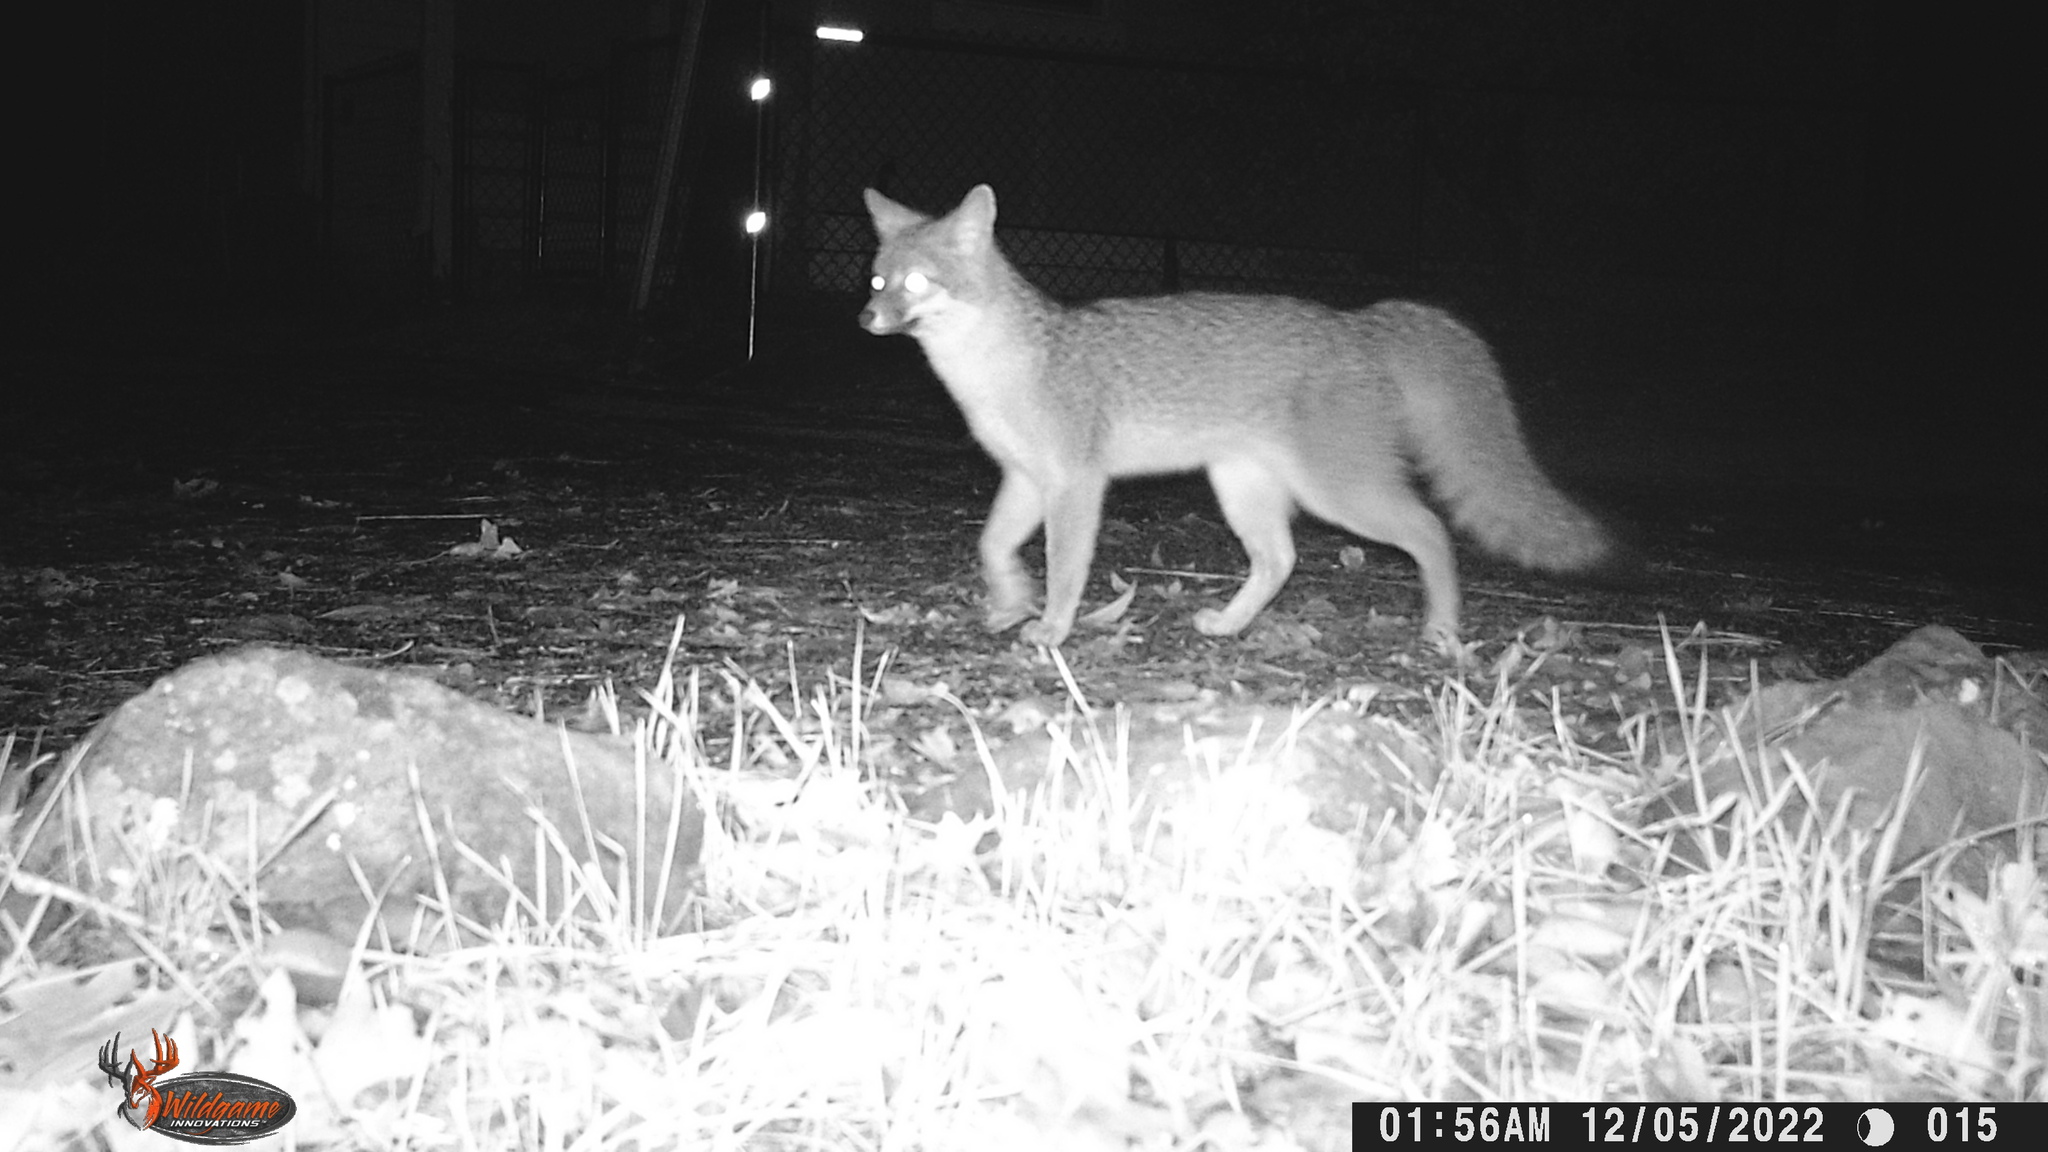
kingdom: Animalia
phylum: Chordata
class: Mammalia
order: Carnivora
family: Canidae
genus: Urocyon
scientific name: Urocyon cinereoargenteus
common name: Gray fox
